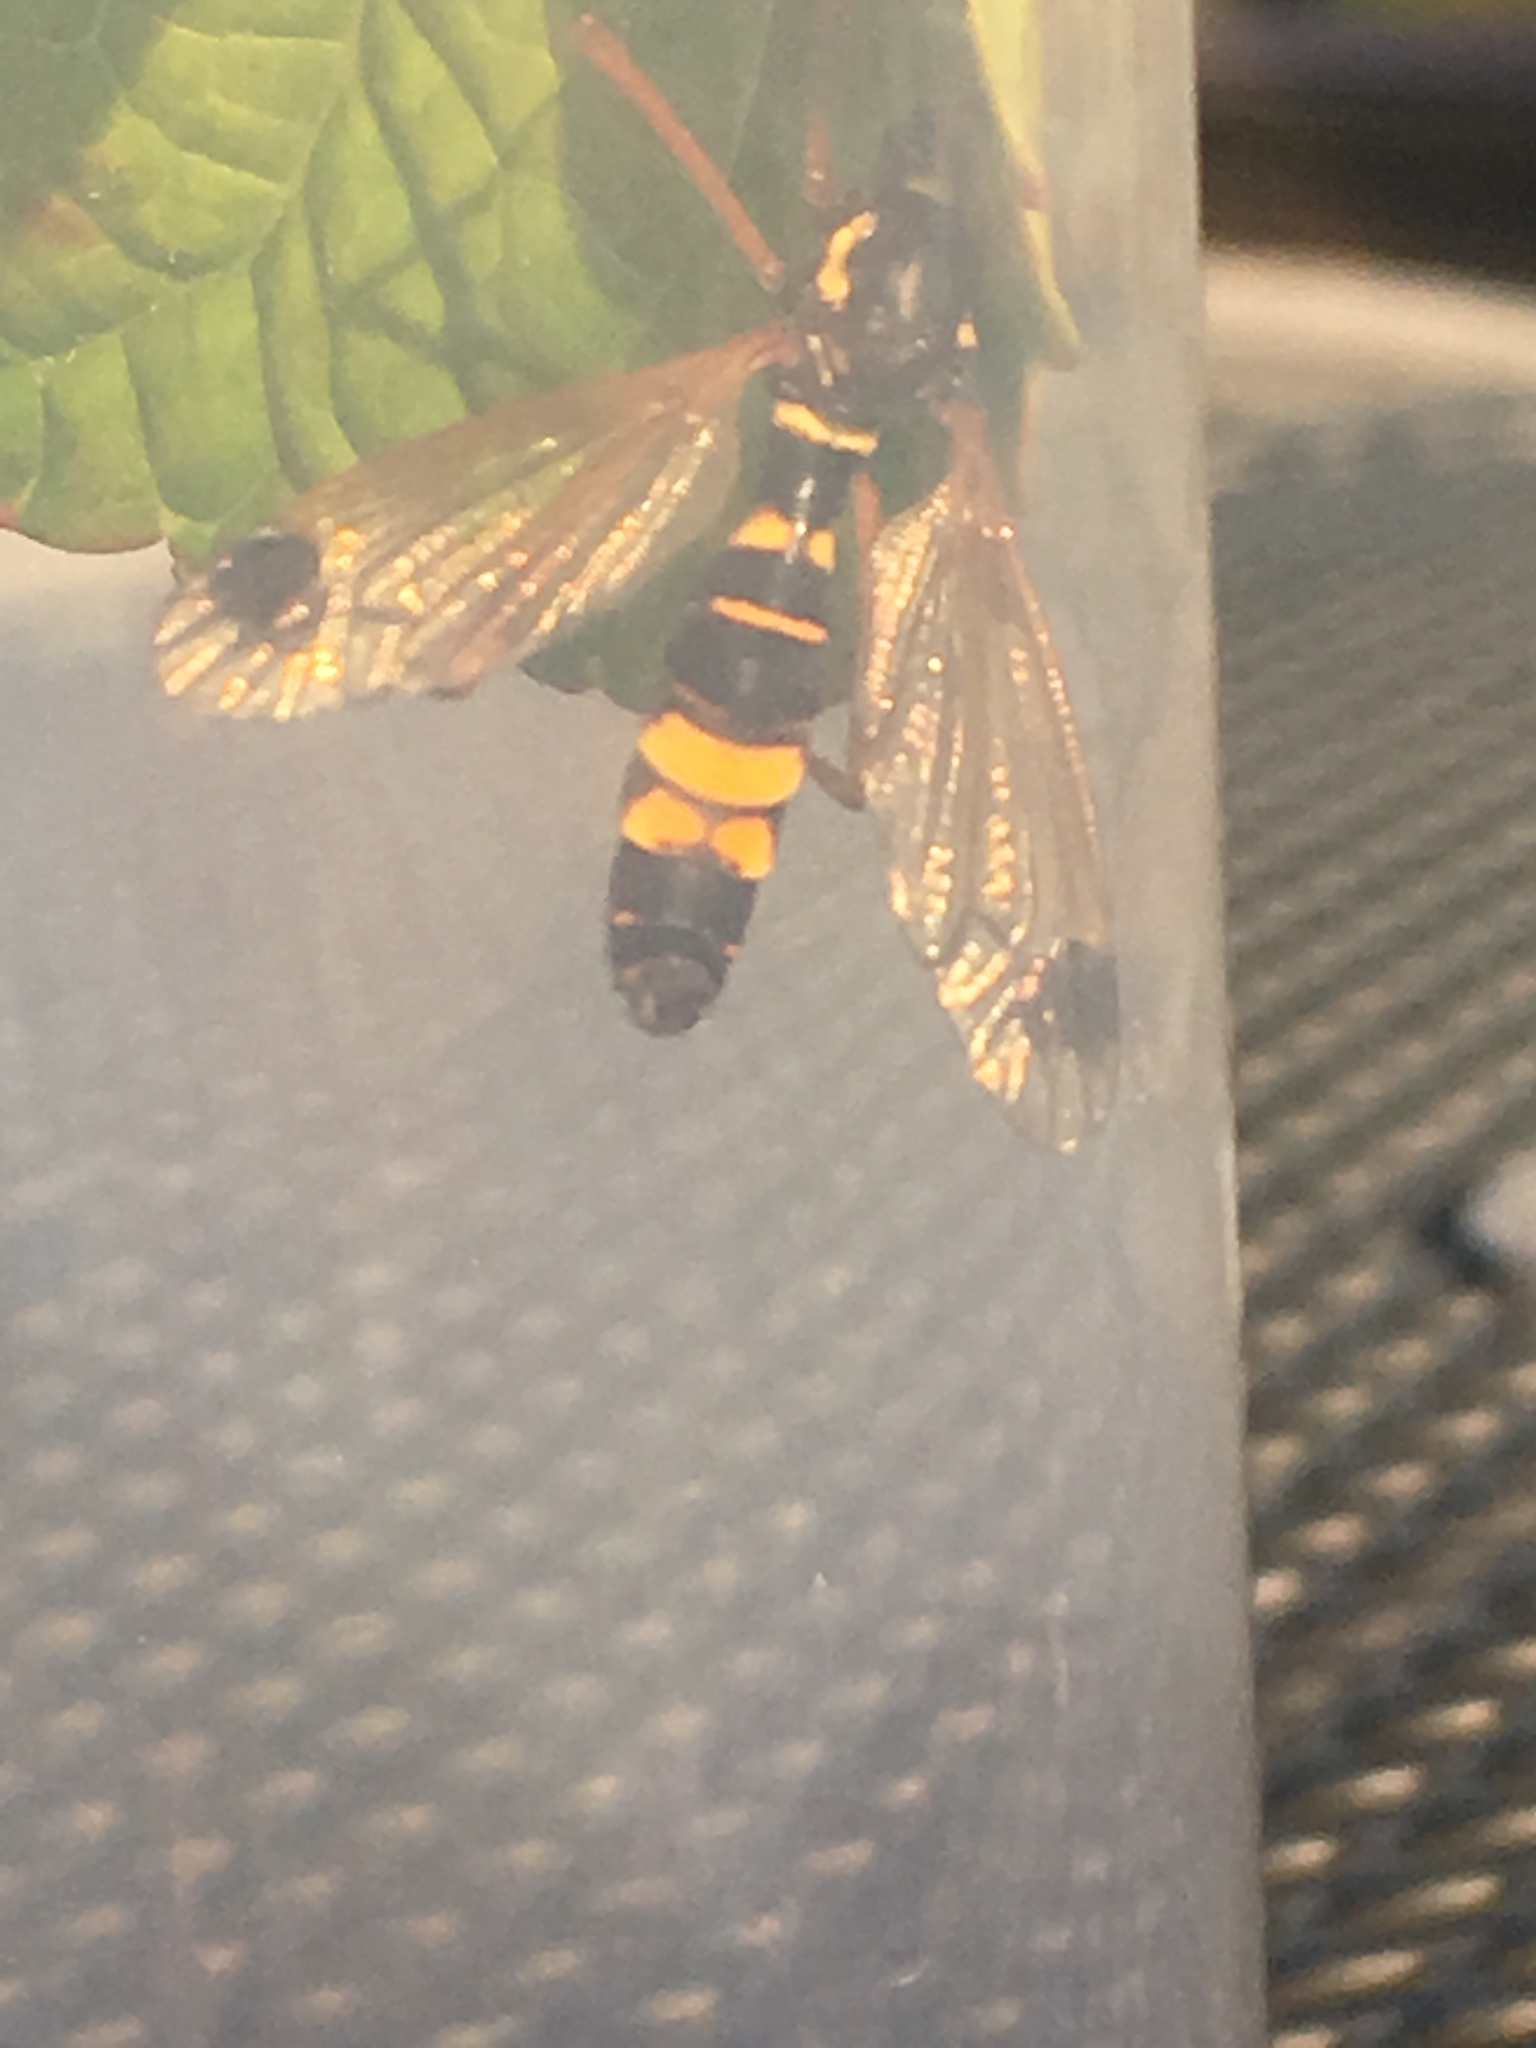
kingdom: Animalia
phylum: Arthropoda
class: Insecta
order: Diptera
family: Tipulidae
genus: Ctenophora
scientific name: Ctenophora festiva
